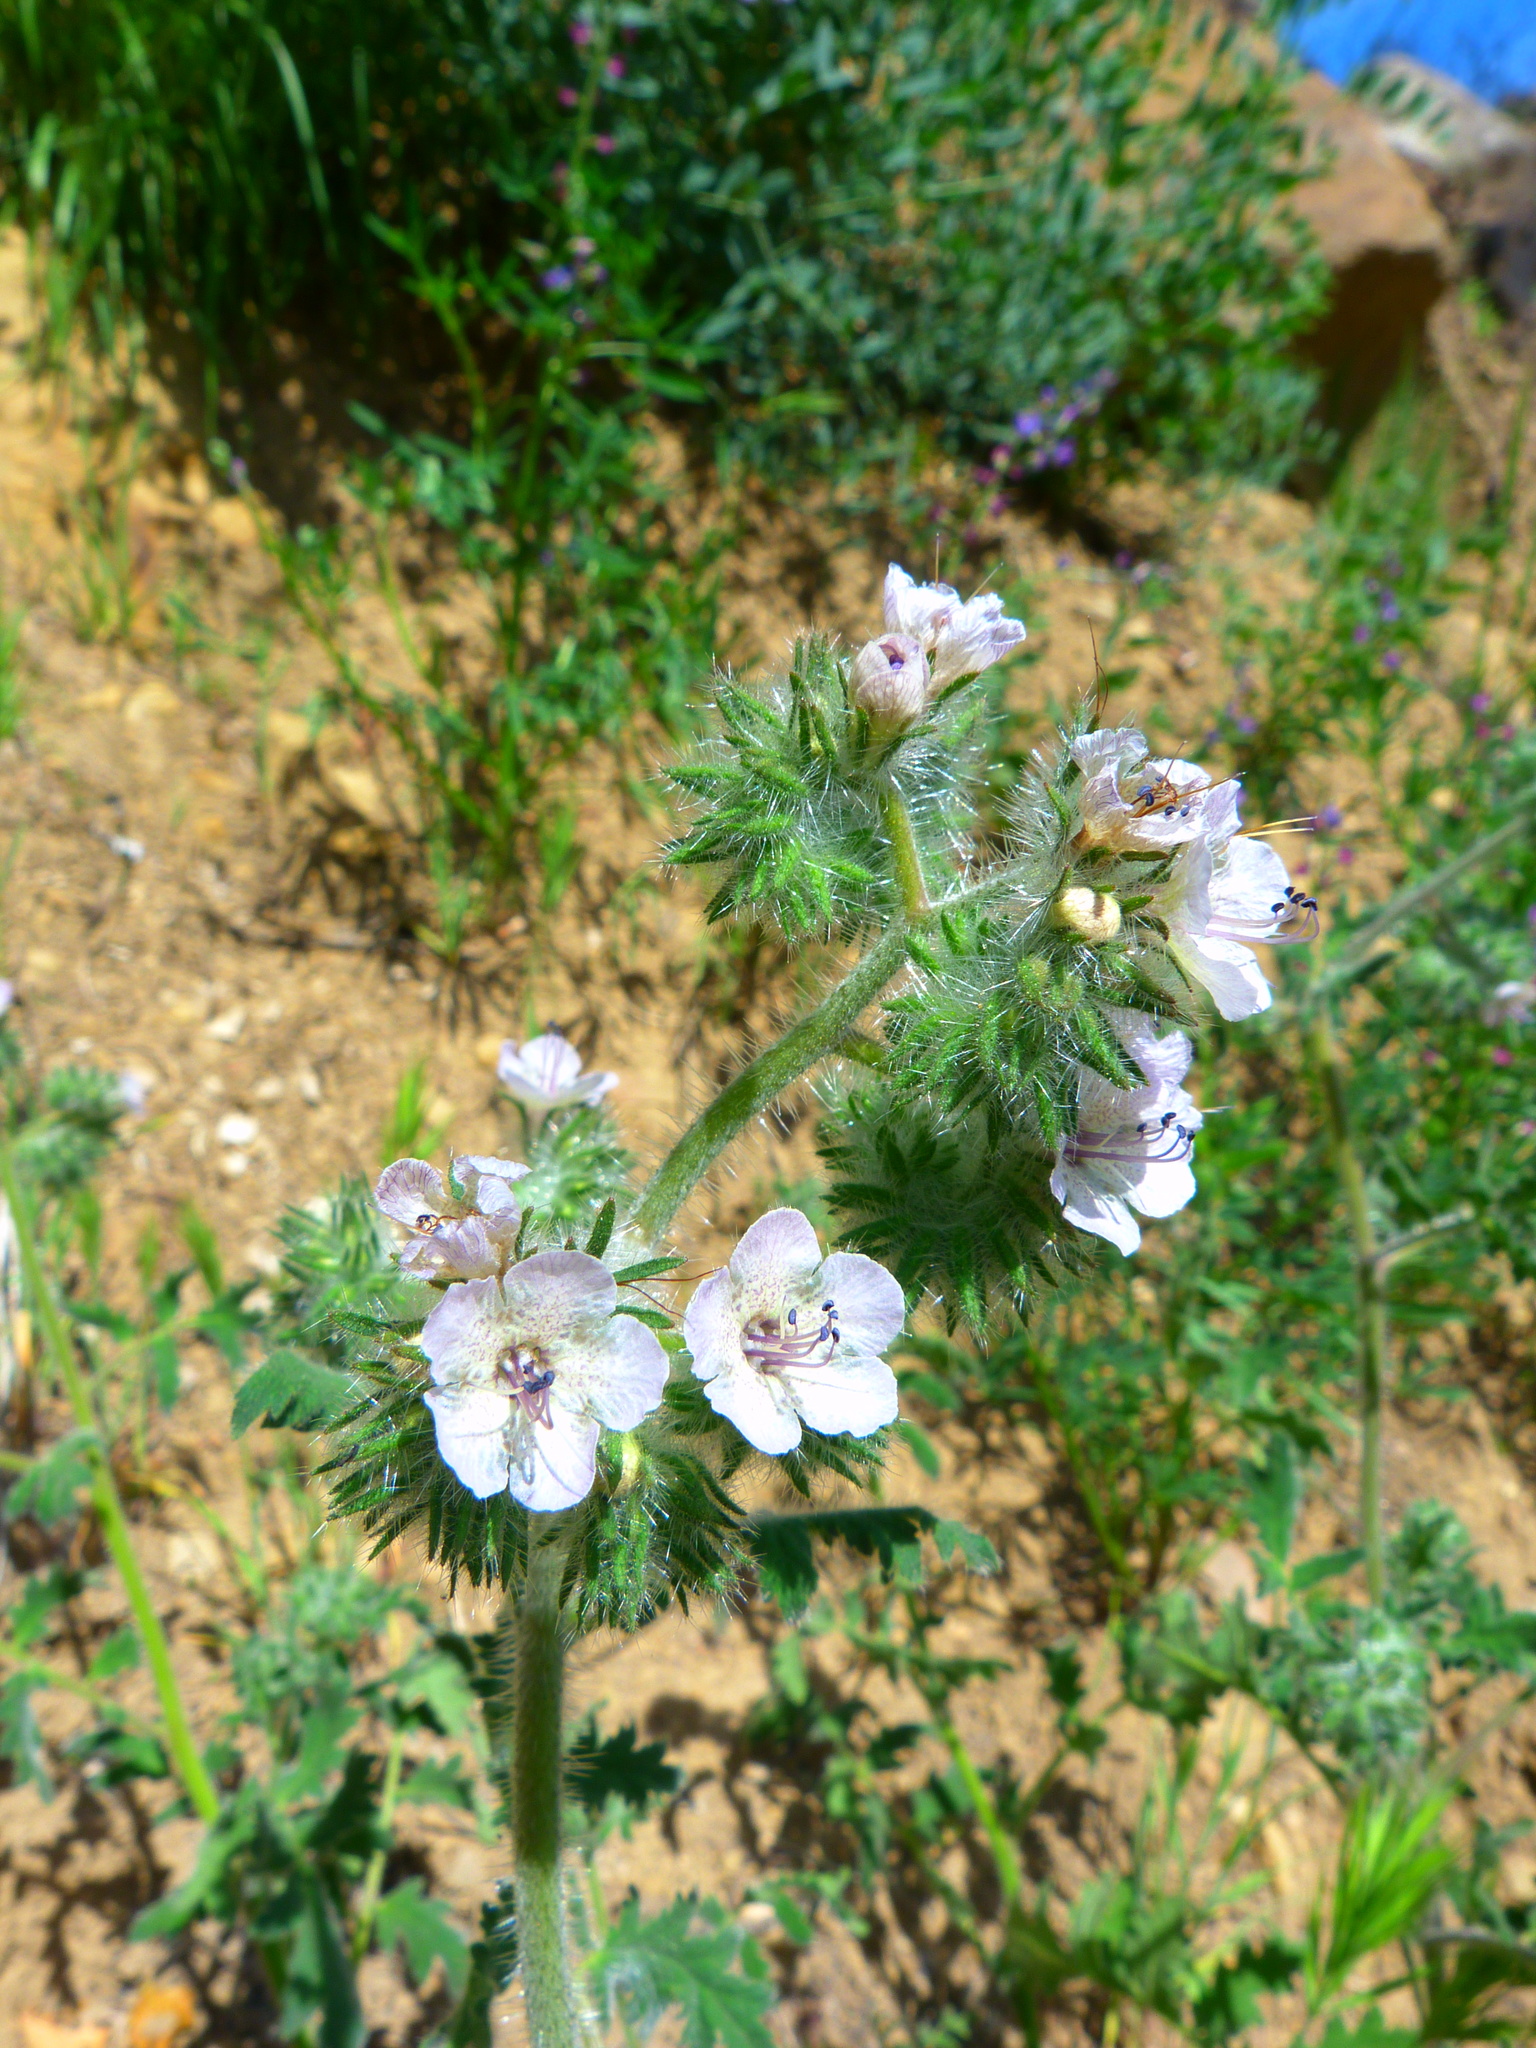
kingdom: Plantae
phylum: Tracheophyta
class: Magnoliopsida
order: Boraginales
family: Hydrophyllaceae
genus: Phacelia
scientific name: Phacelia cicutaria
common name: Caterpillar phacelia
